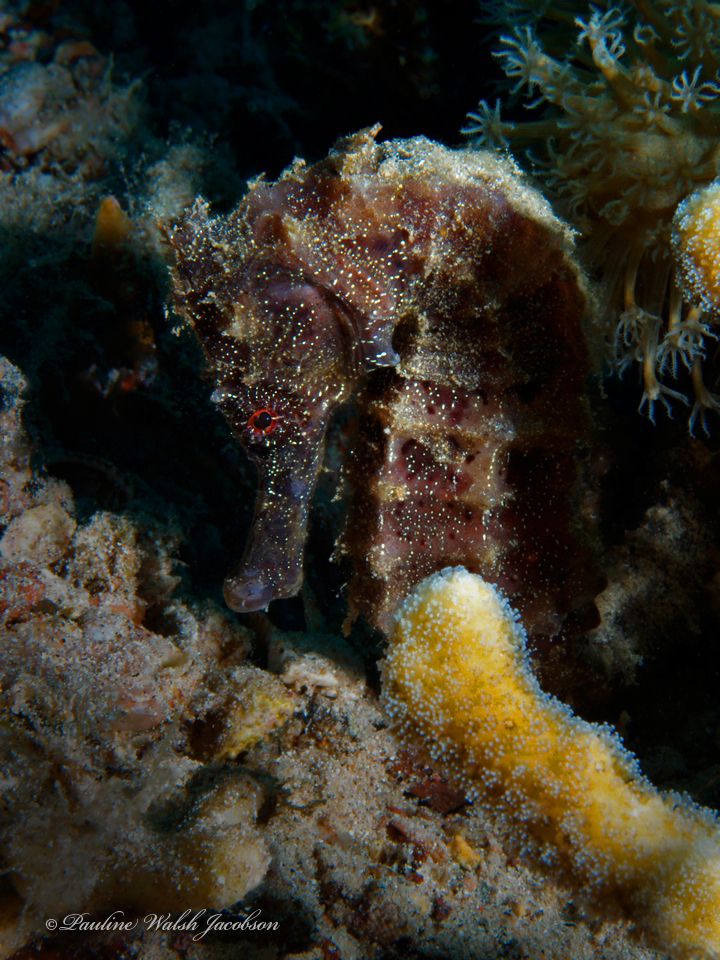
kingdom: Animalia
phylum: Chordata
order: Syngnathiformes
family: Syngnathidae
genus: Hippocampus
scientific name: Hippocampus kuda
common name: Spotted seahorse
